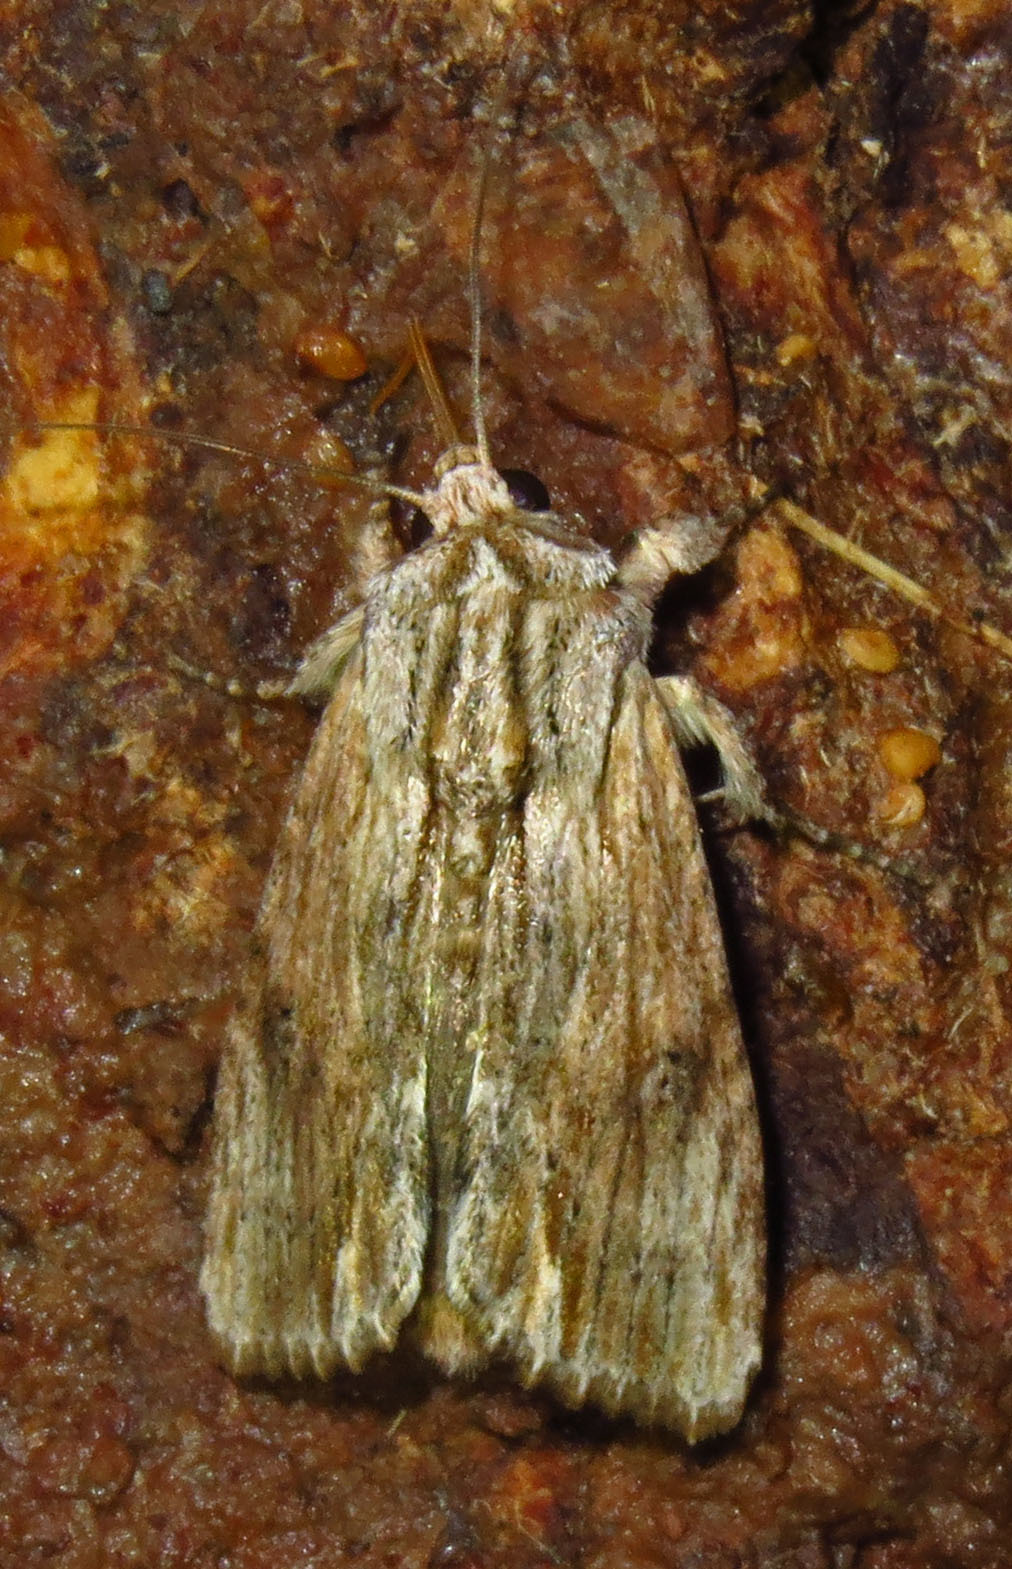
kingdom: Animalia
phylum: Arthropoda
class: Insecta
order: Lepidoptera
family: Noctuidae
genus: Spodoptera
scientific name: Spodoptera eridania
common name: Southern army worm
